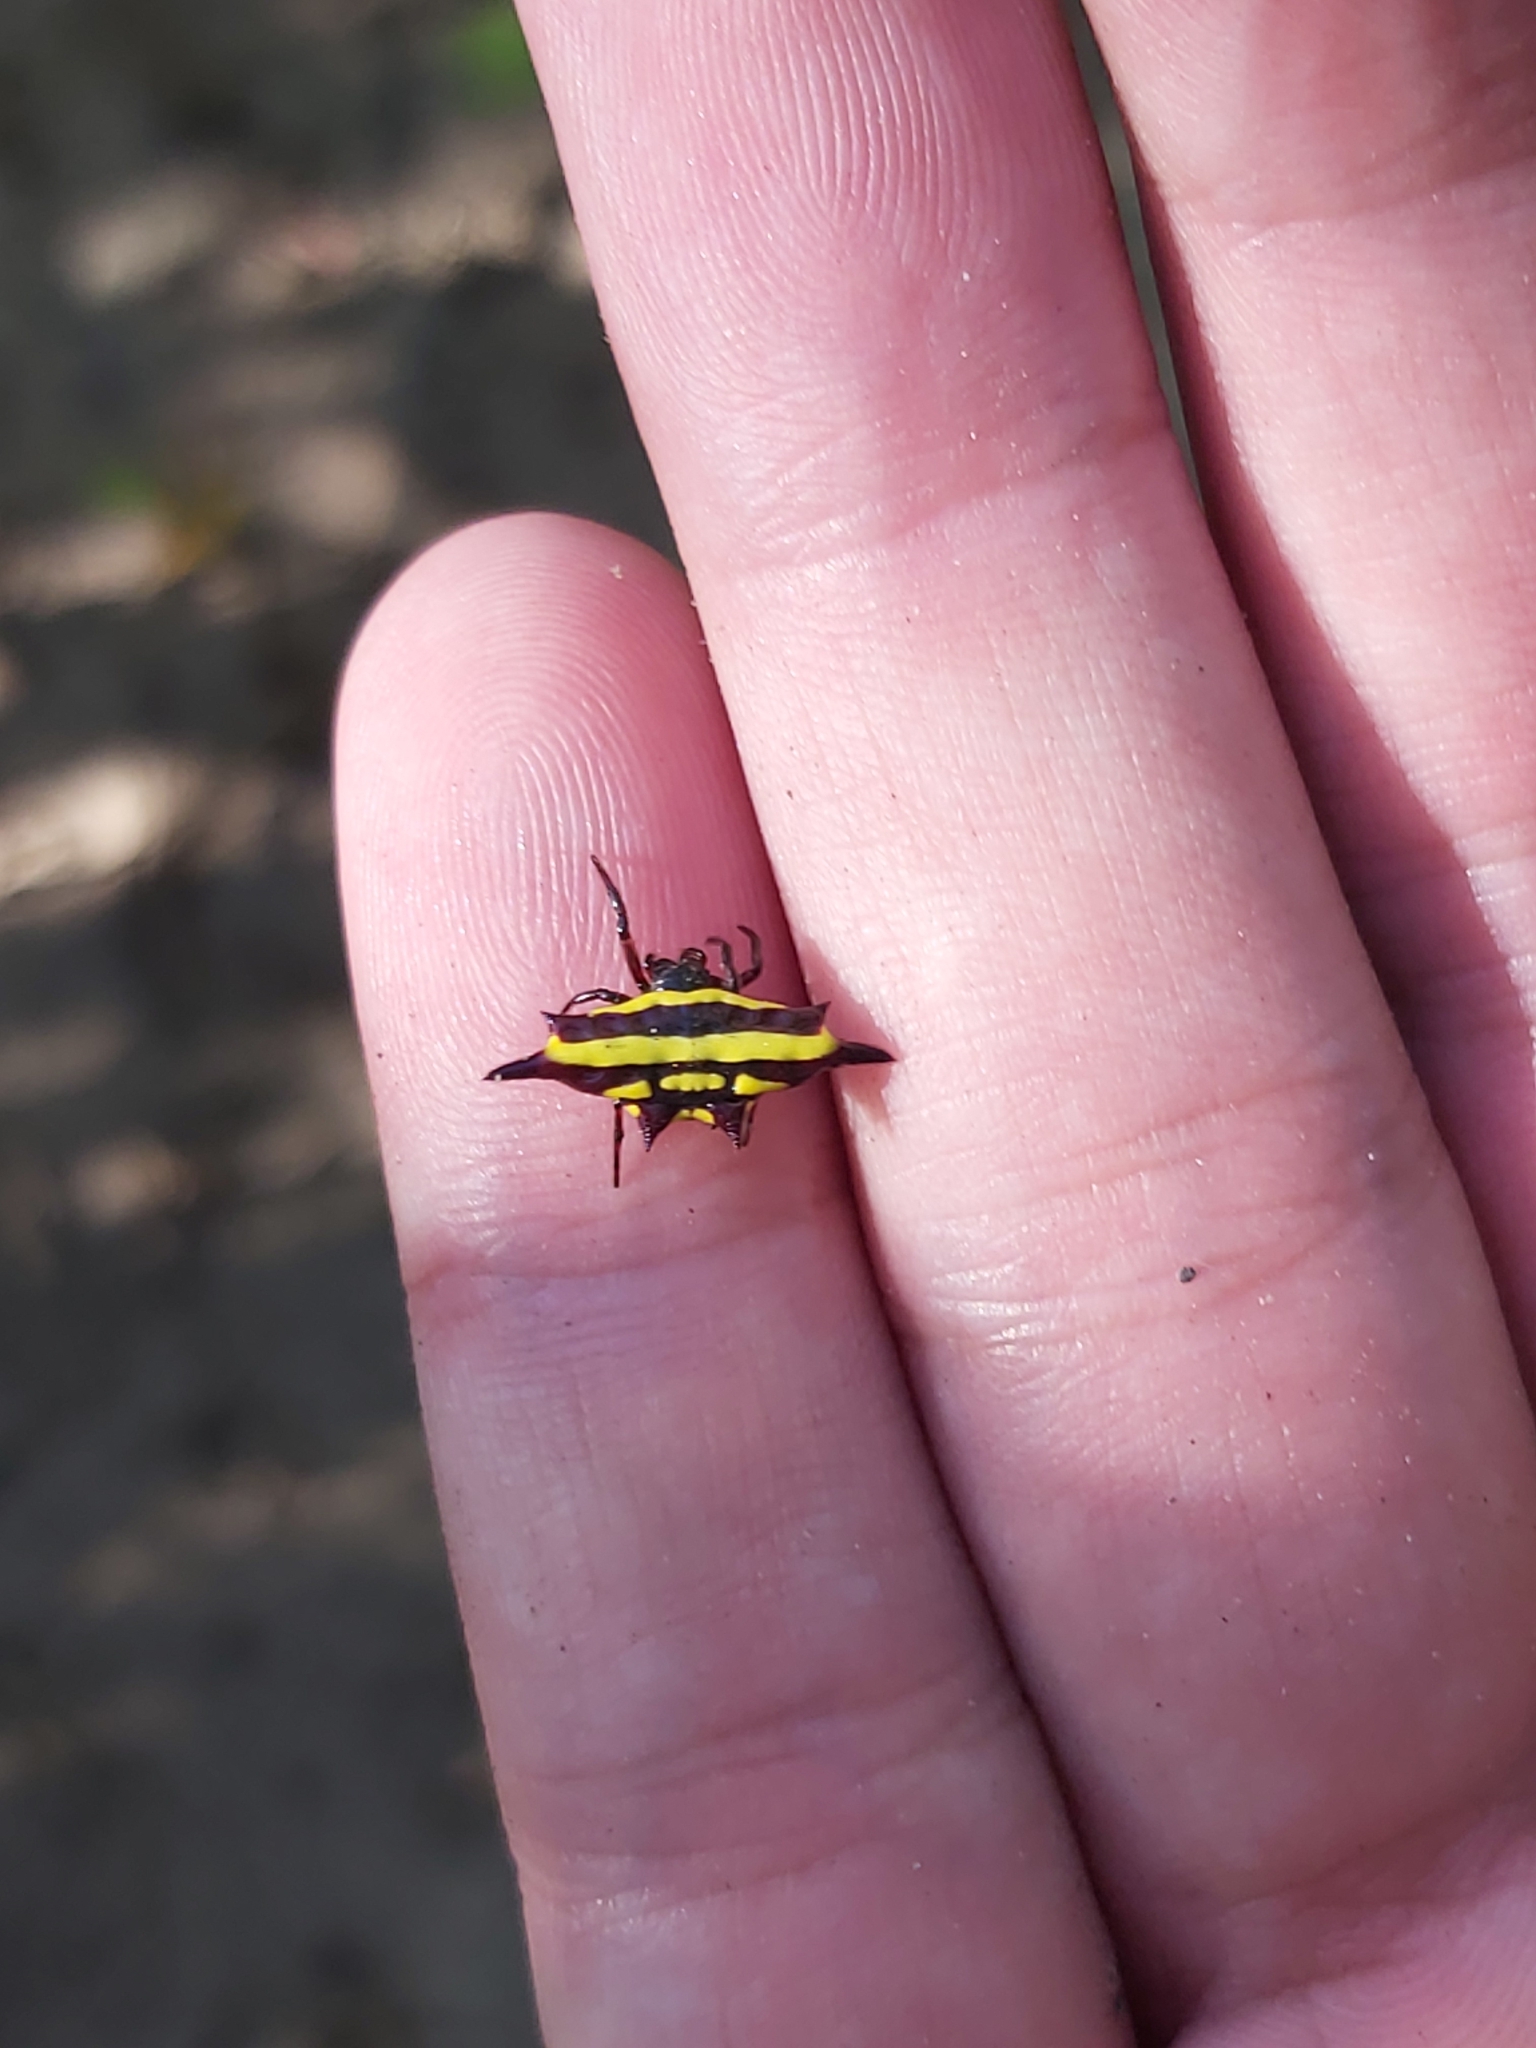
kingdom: Animalia
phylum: Arthropoda
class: Arachnida
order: Araneae
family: Araneidae
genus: Gasteracantha
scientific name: Gasteracantha fornicata
